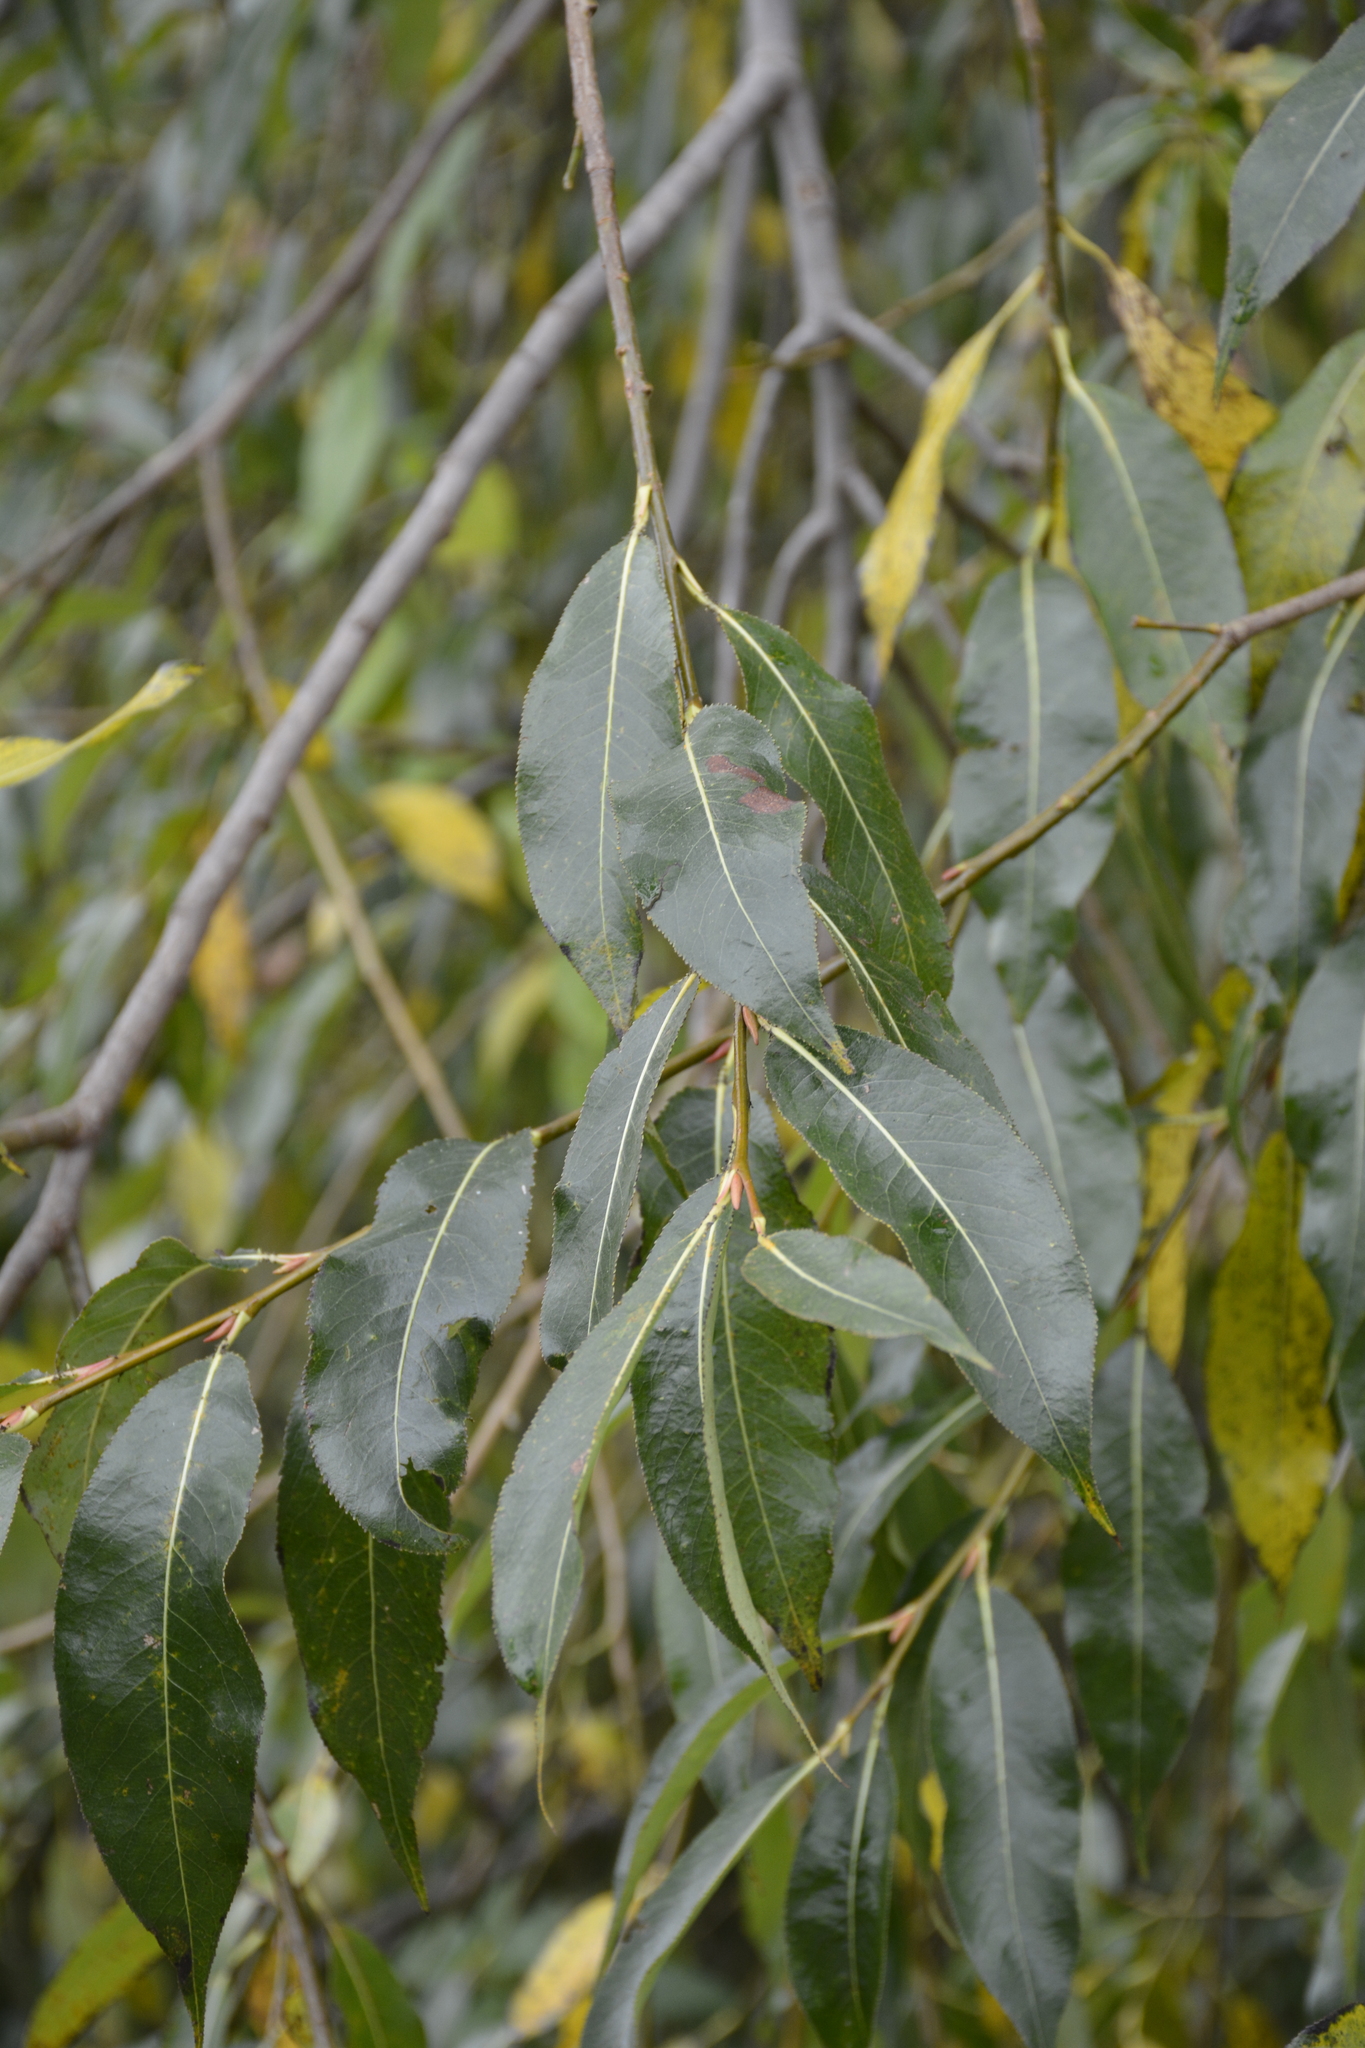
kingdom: Plantae
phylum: Tracheophyta
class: Magnoliopsida
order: Malpighiales
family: Salicaceae
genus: Salix
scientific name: Salix pentandra
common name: Bay willow
